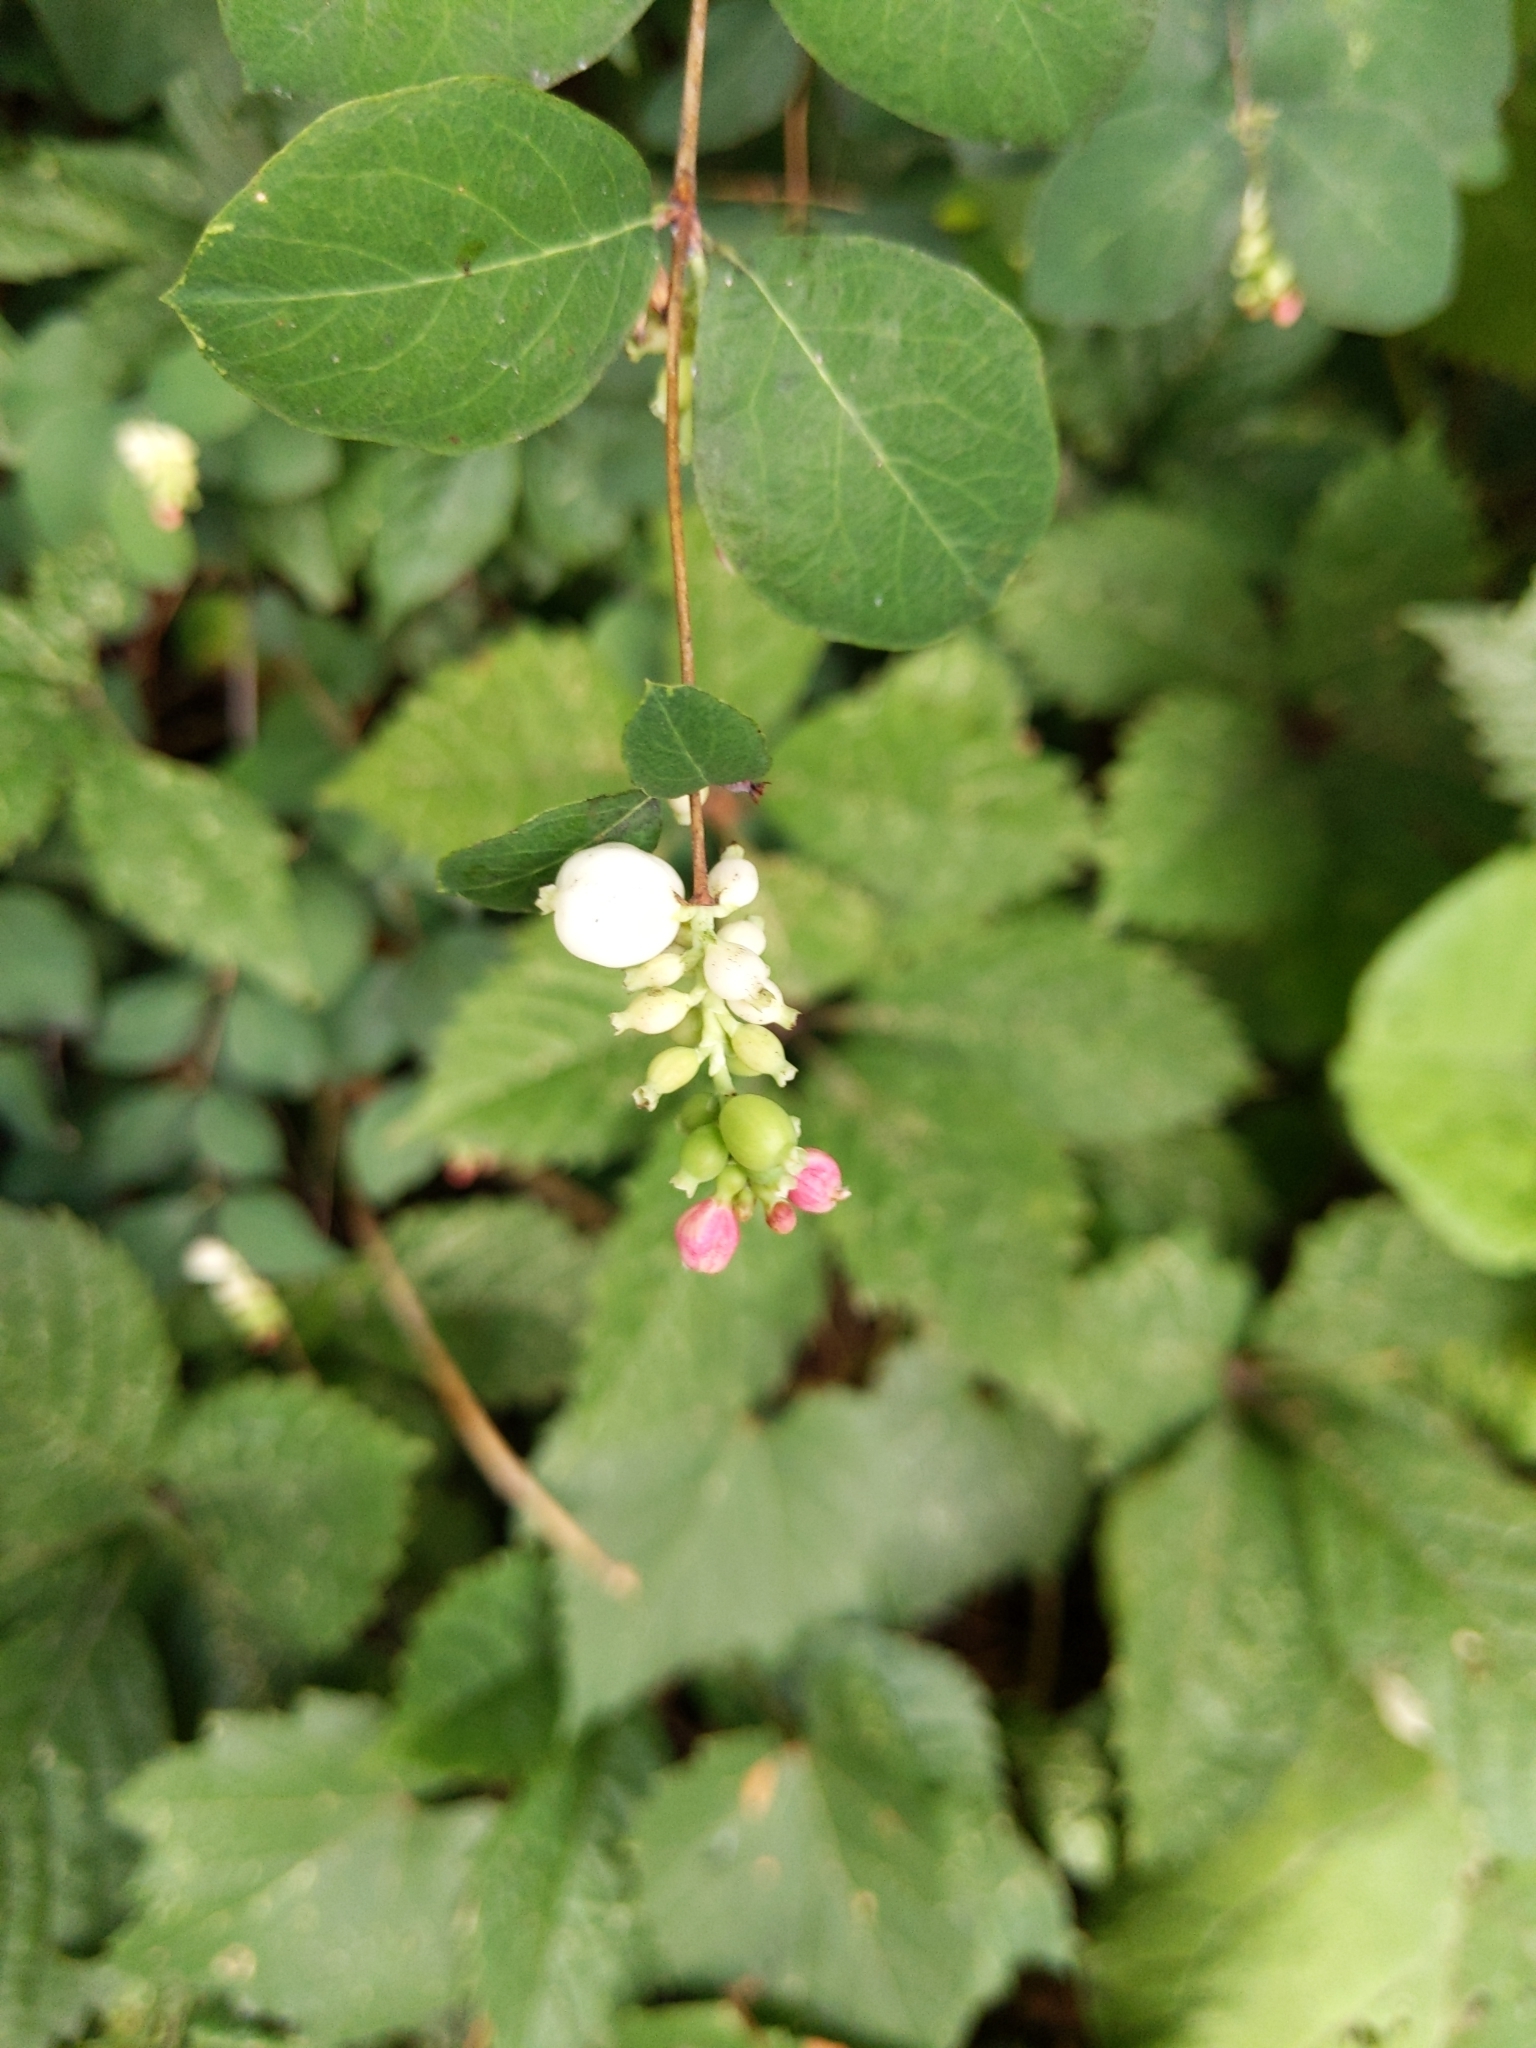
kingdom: Plantae
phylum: Tracheophyta
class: Magnoliopsida
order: Dipsacales
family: Caprifoliaceae
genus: Symphoricarpos
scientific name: Symphoricarpos albus
